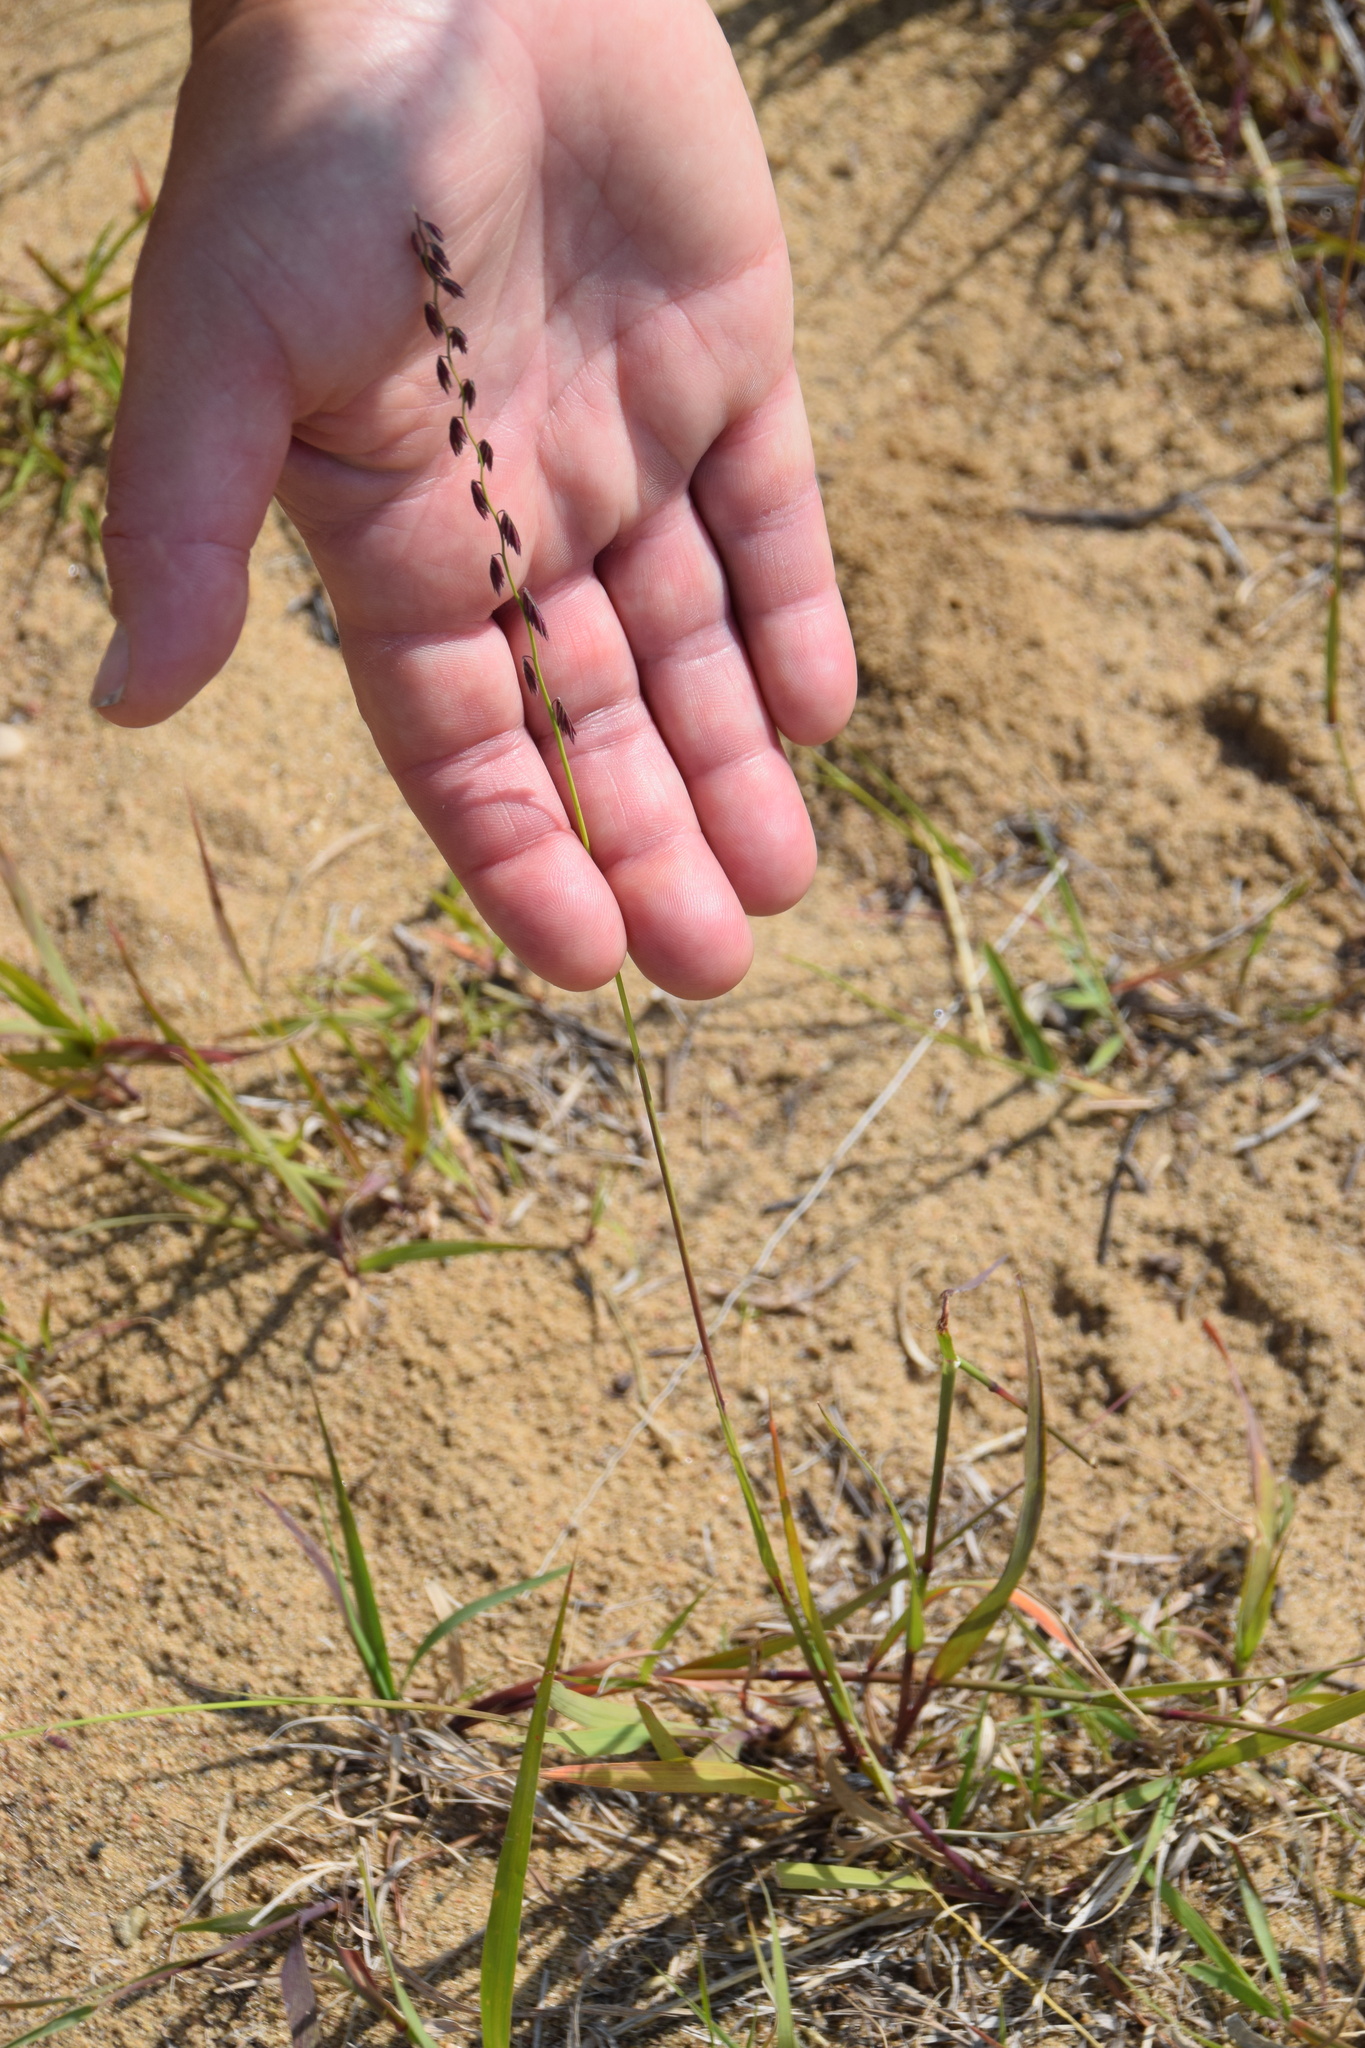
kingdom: Plantae
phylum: Tracheophyta
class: Liliopsida
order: Poales
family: Poaceae
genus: Bouteloua
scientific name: Bouteloua curtipendula
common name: Side-oats grama
